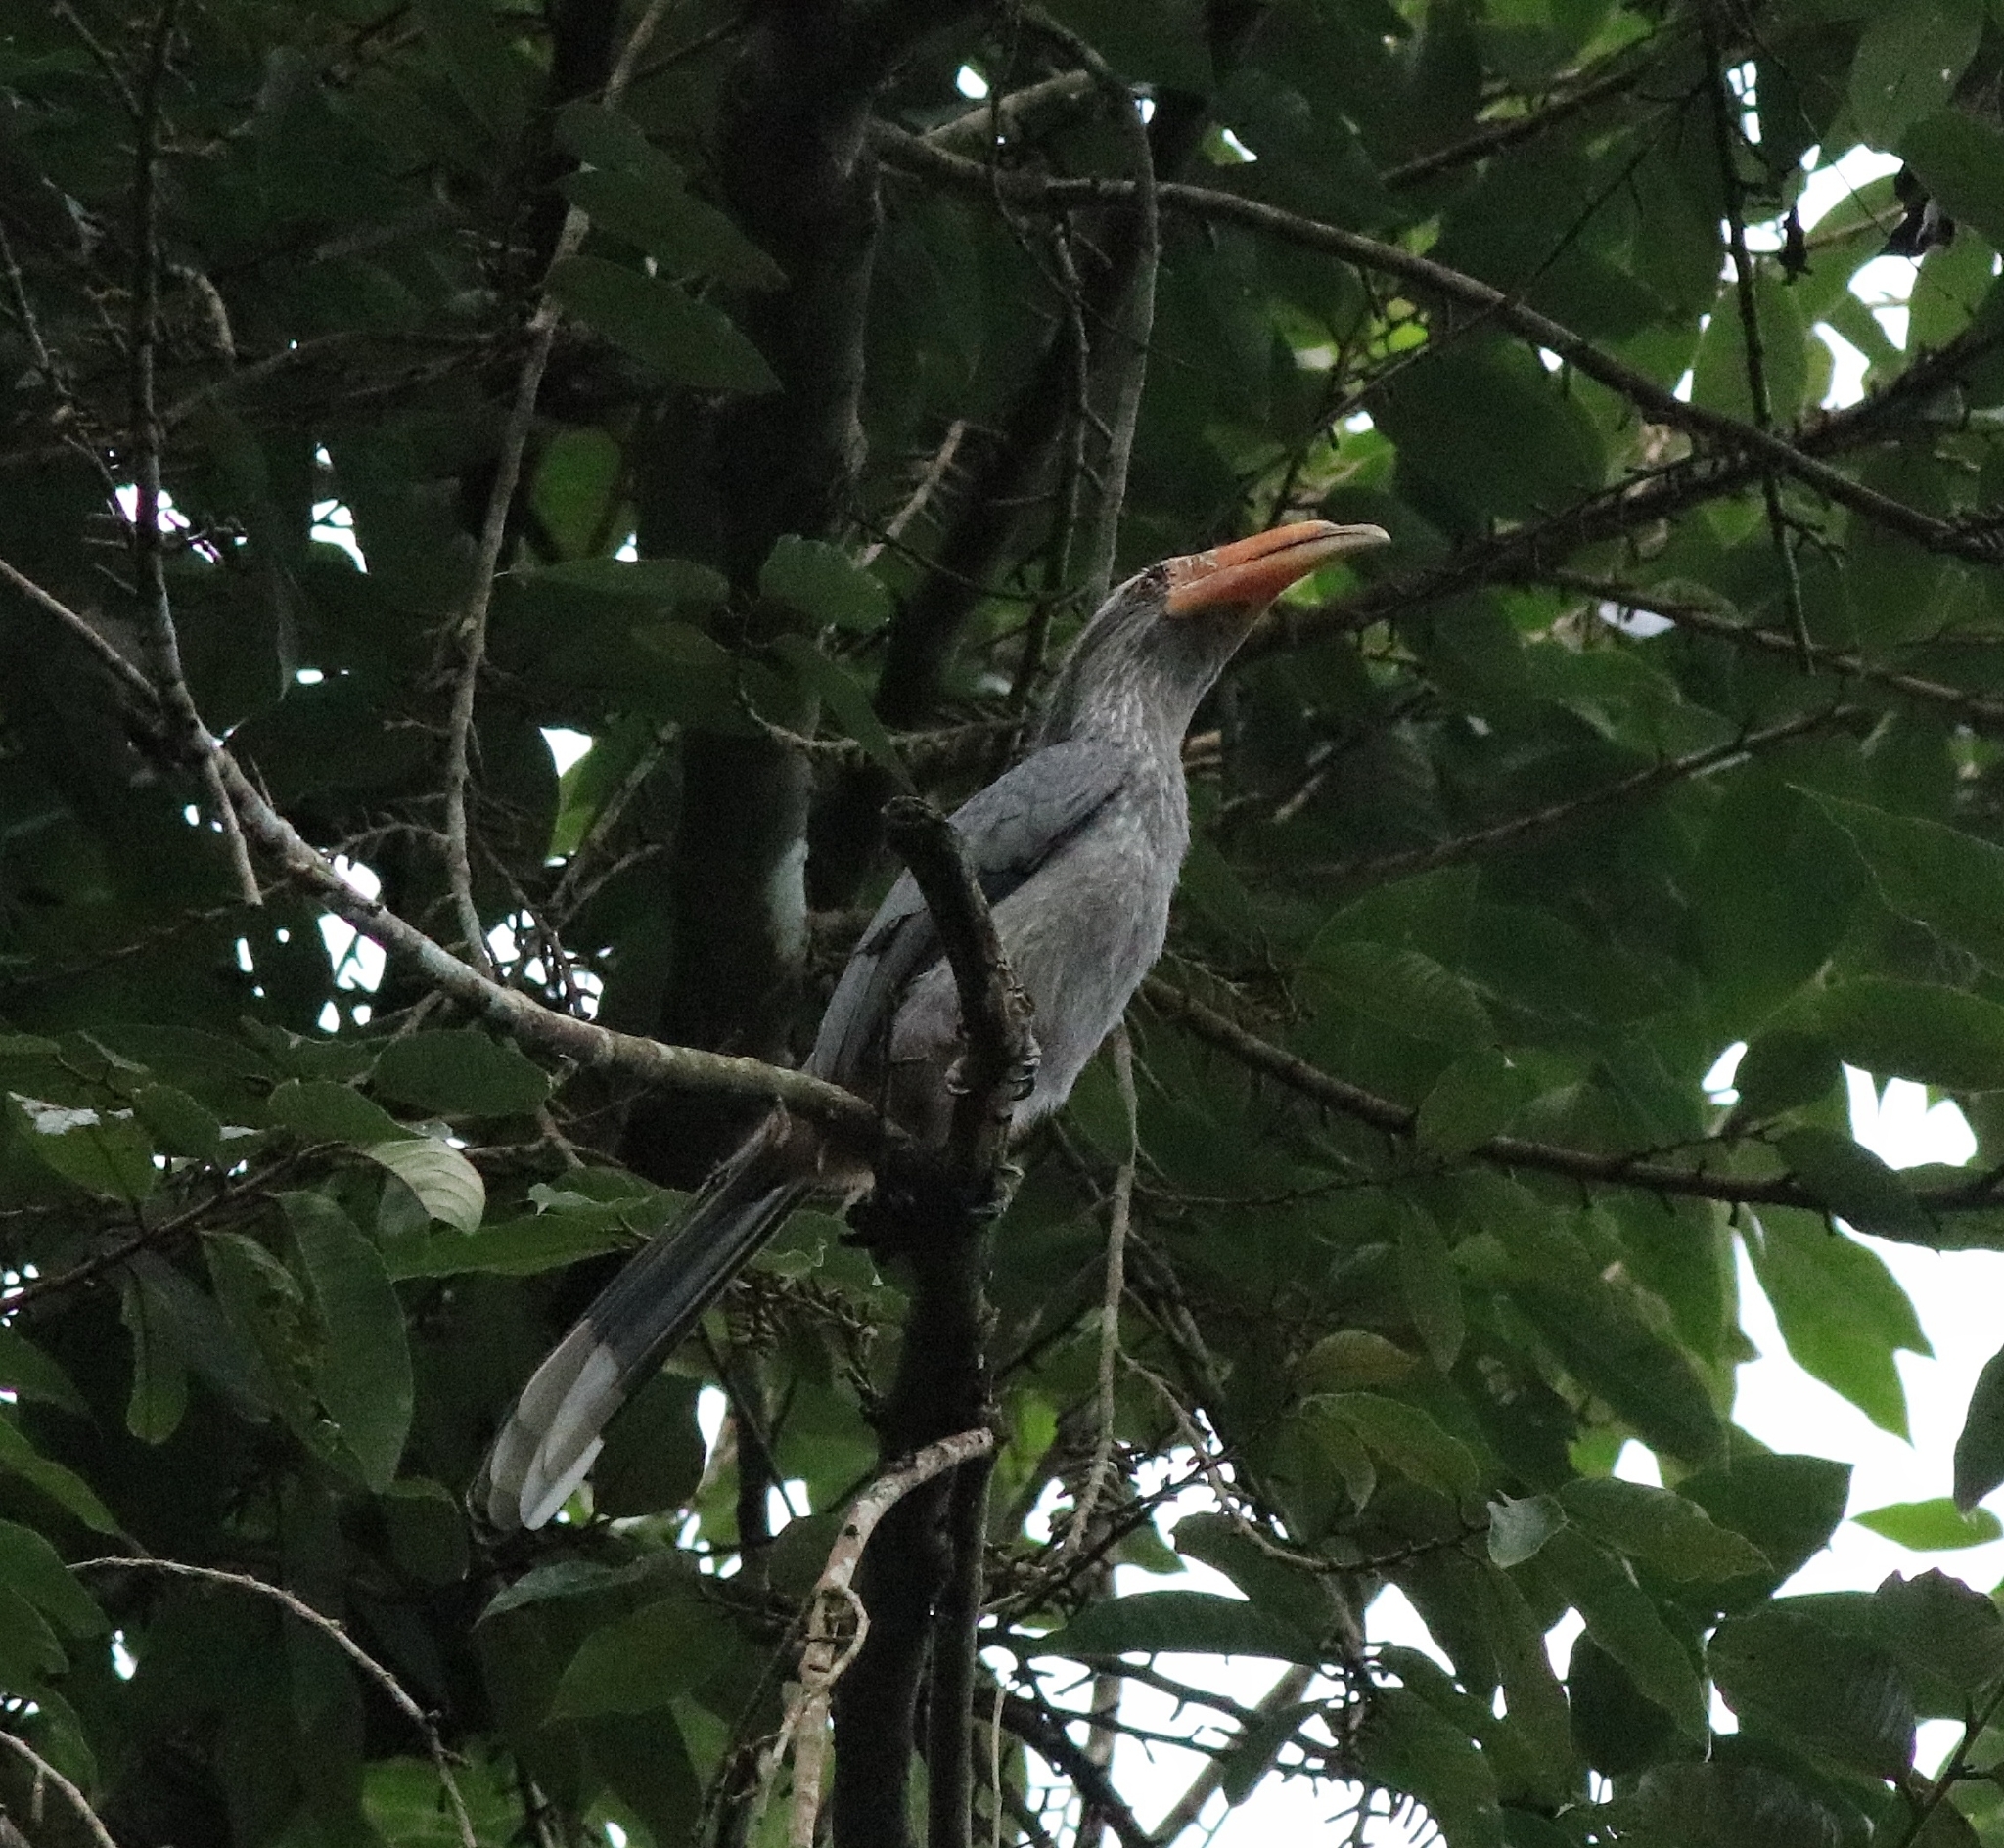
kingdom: Animalia
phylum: Chordata
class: Aves
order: Bucerotiformes
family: Bucerotidae
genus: Ocyceros
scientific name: Ocyceros griseus
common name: Malabar grey hornbill
